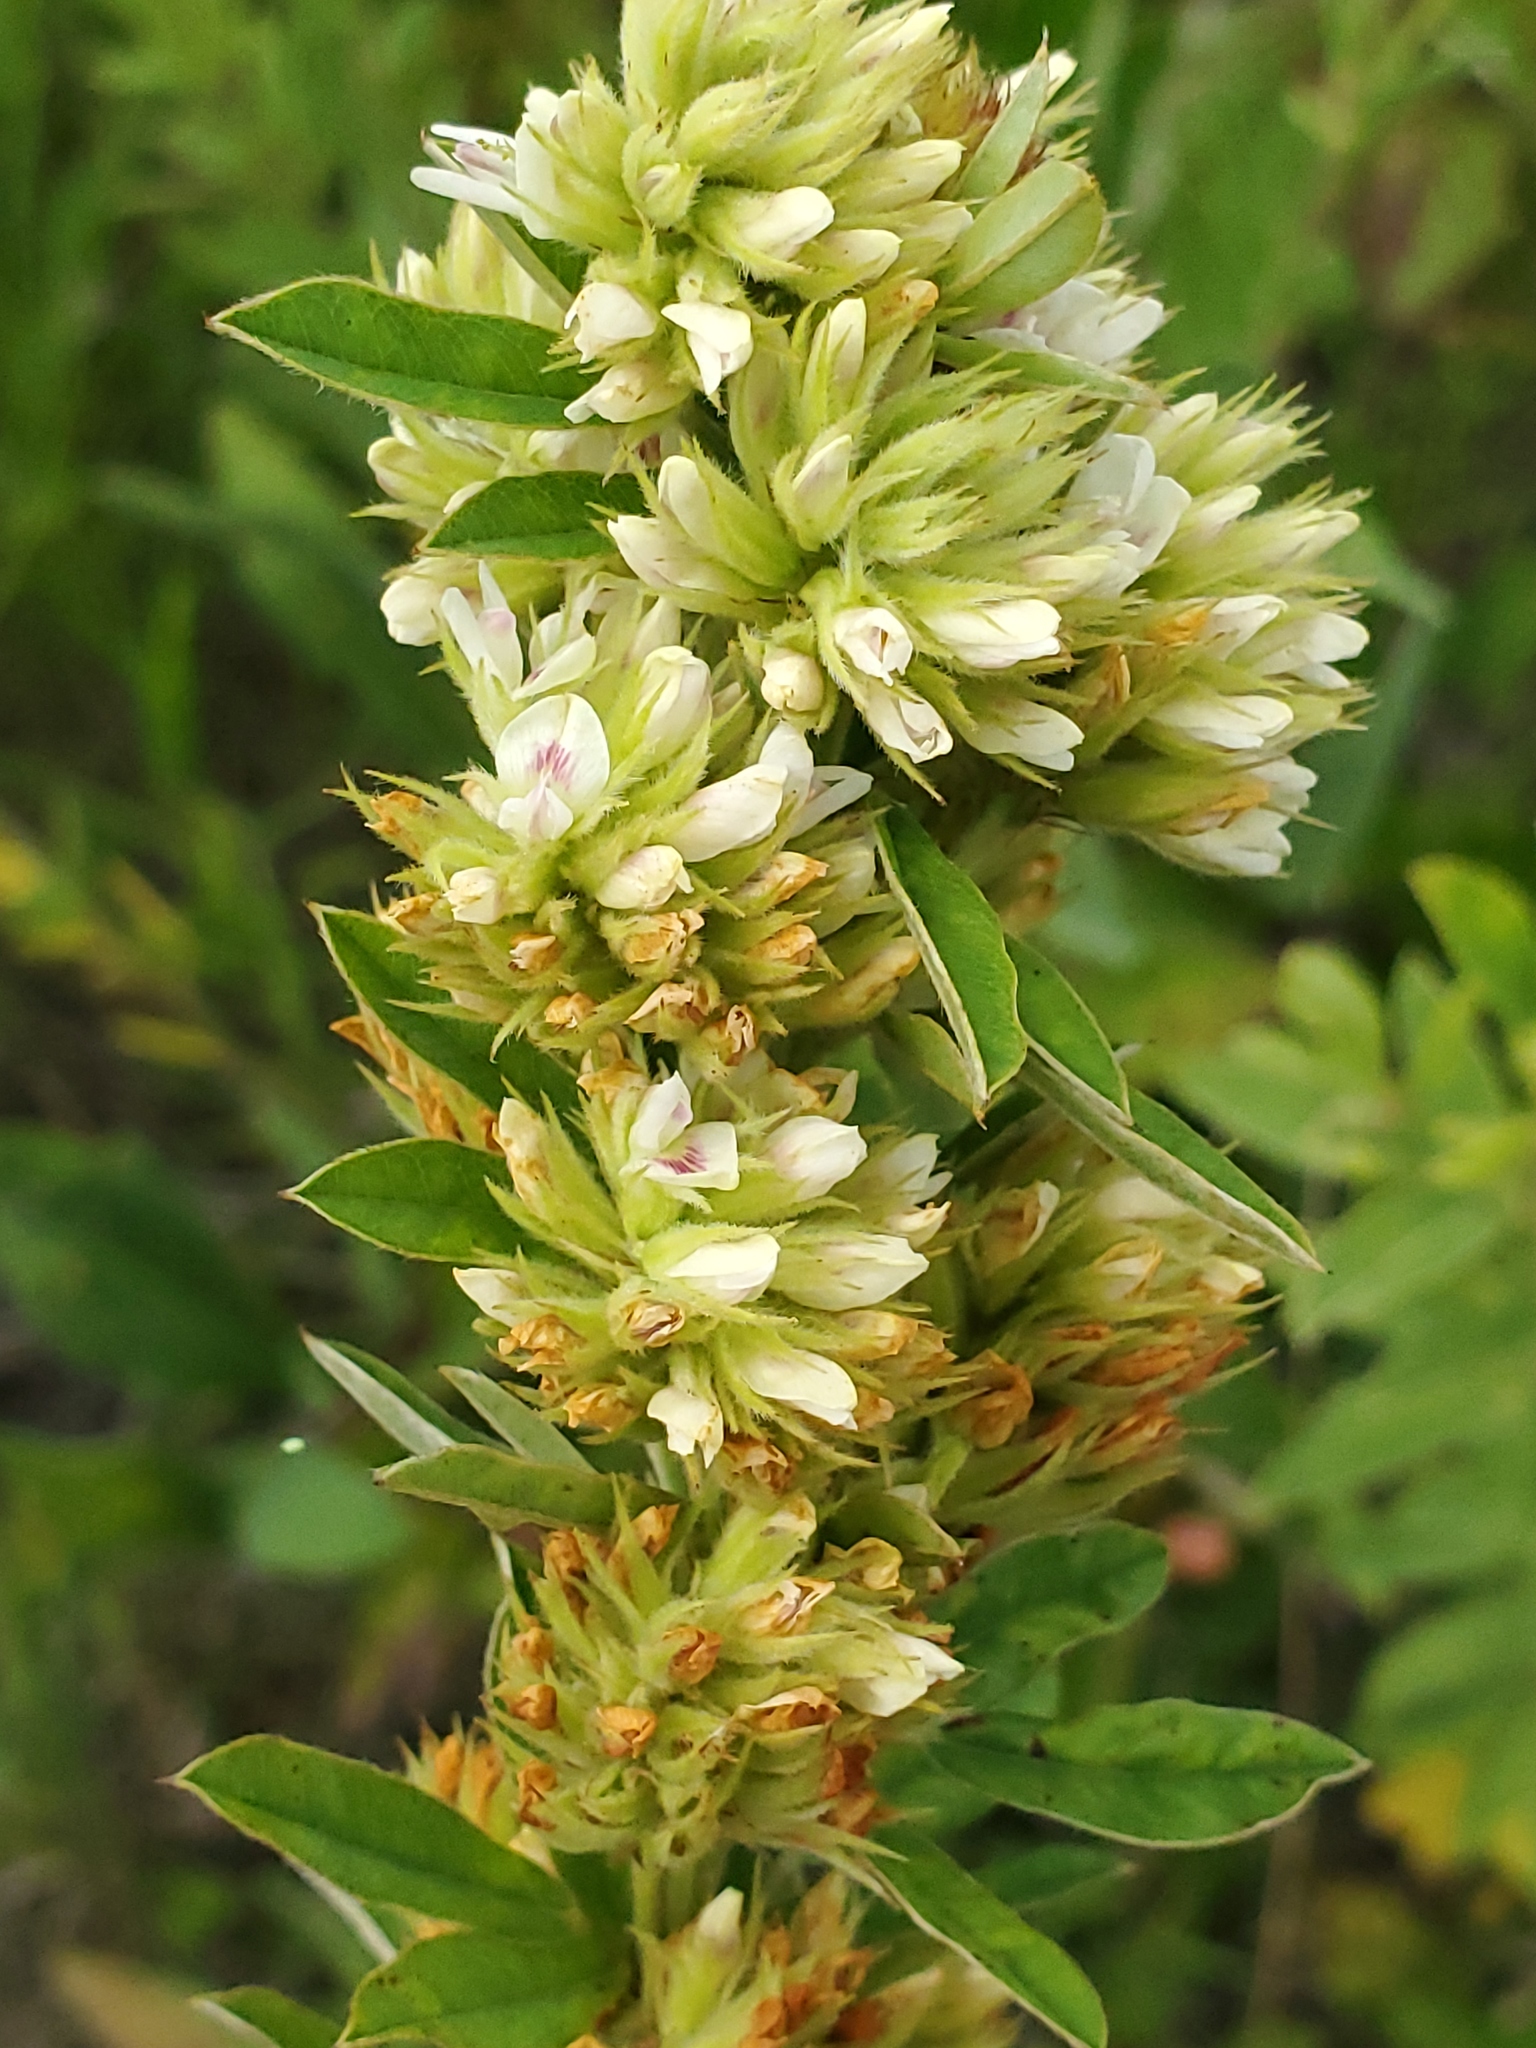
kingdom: Plantae
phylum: Tracheophyta
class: Magnoliopsida
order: Fabales
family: Fabaceae
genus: Lespedeza
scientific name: Lespedeza capitata
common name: Dusty clover
